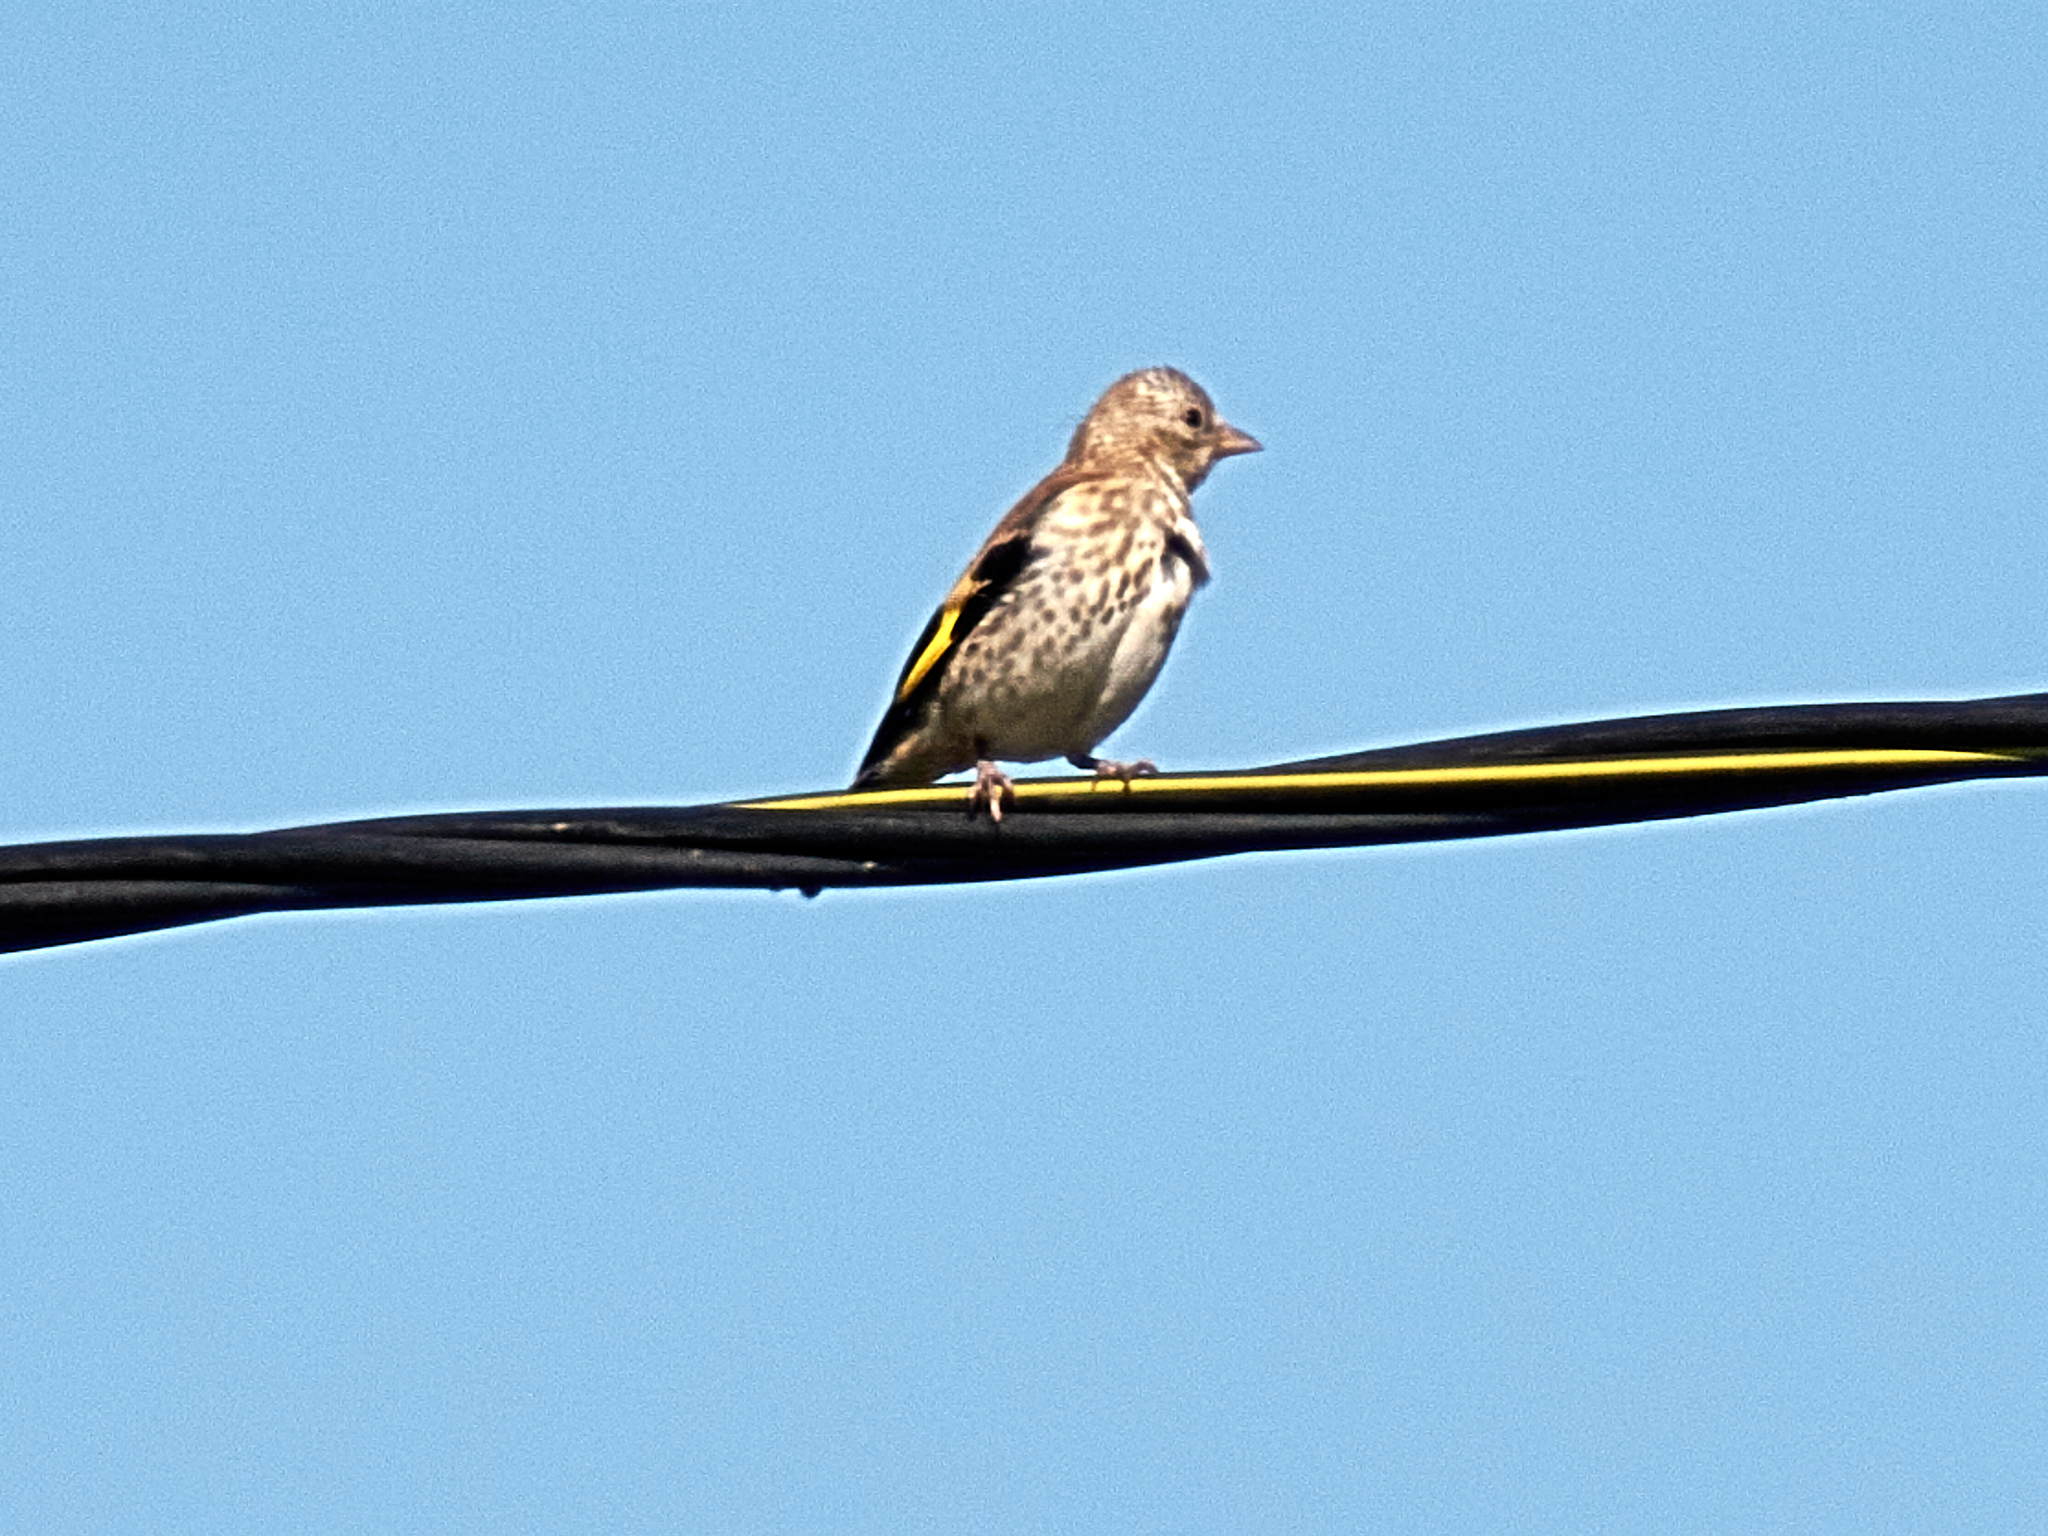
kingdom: Animalia
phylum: Chordata
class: Aves
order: Passeriformes
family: Fringillidae
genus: Carduelis
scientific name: Carduelis carduelis
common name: European goldfinch
